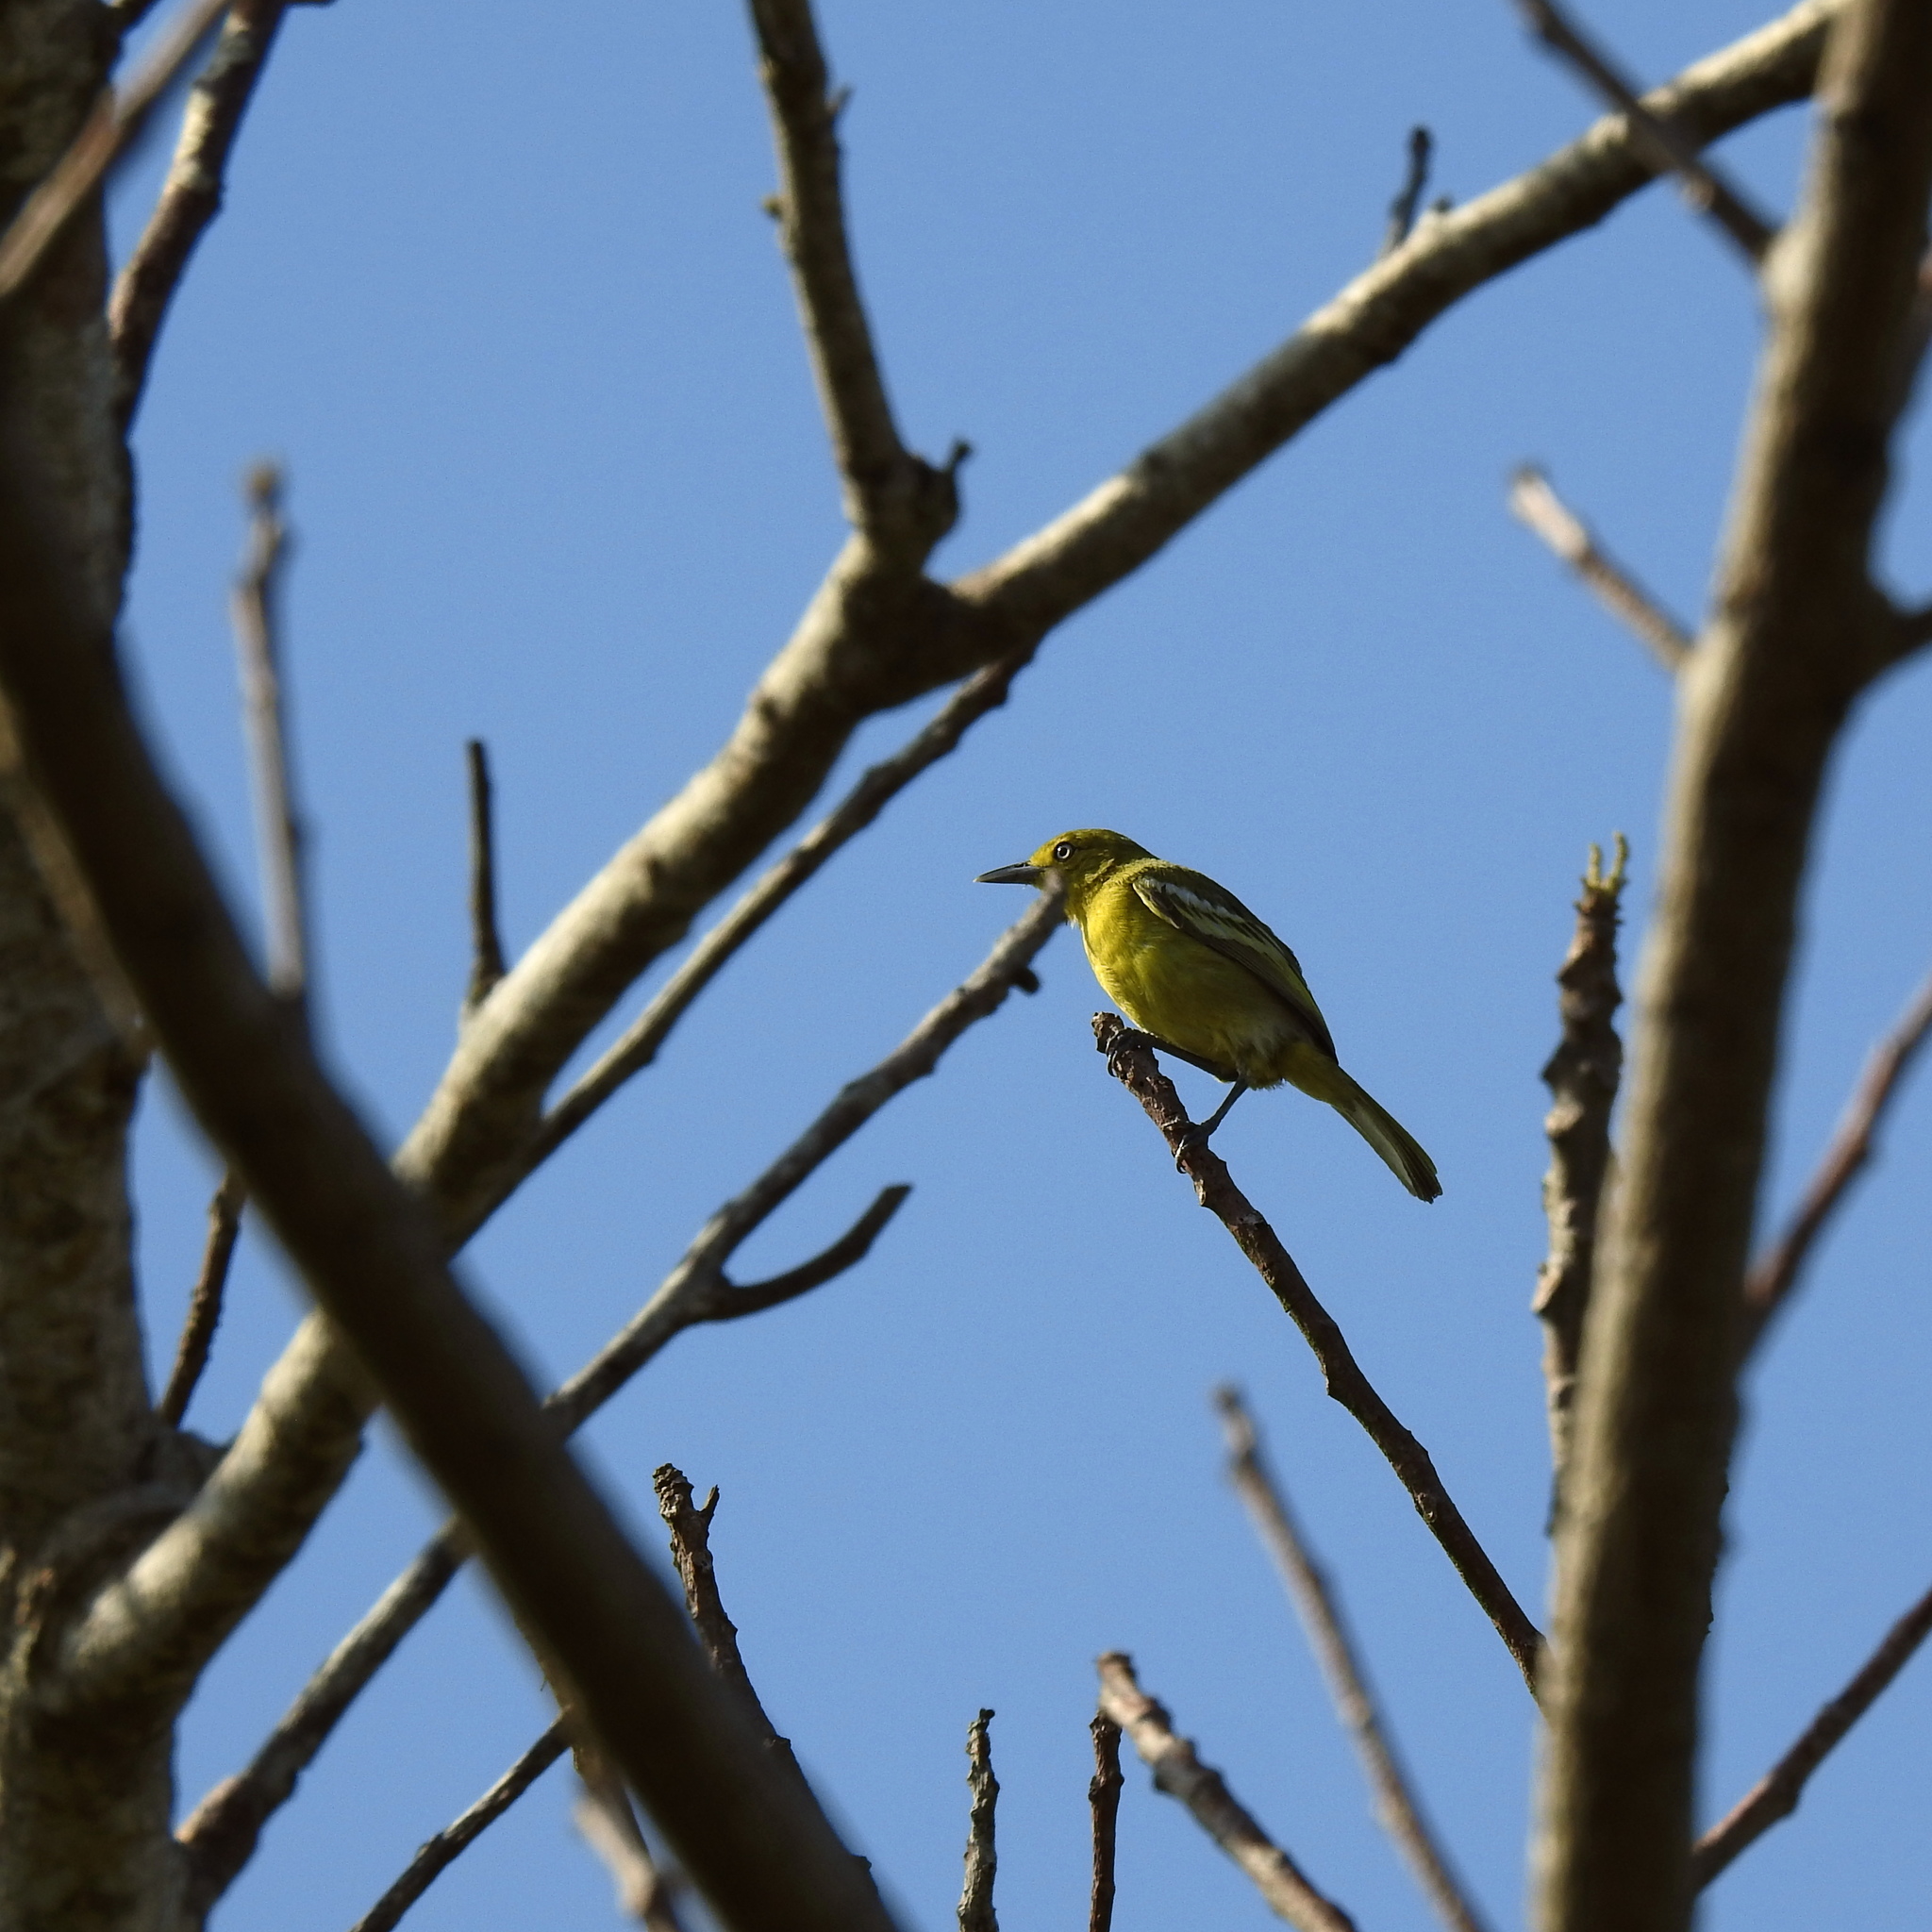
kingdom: Animalia
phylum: Chordata
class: Aves
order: Passeriformes
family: Aegithinidae
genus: Aegithina
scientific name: Aegithina tiphia
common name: Common iora
